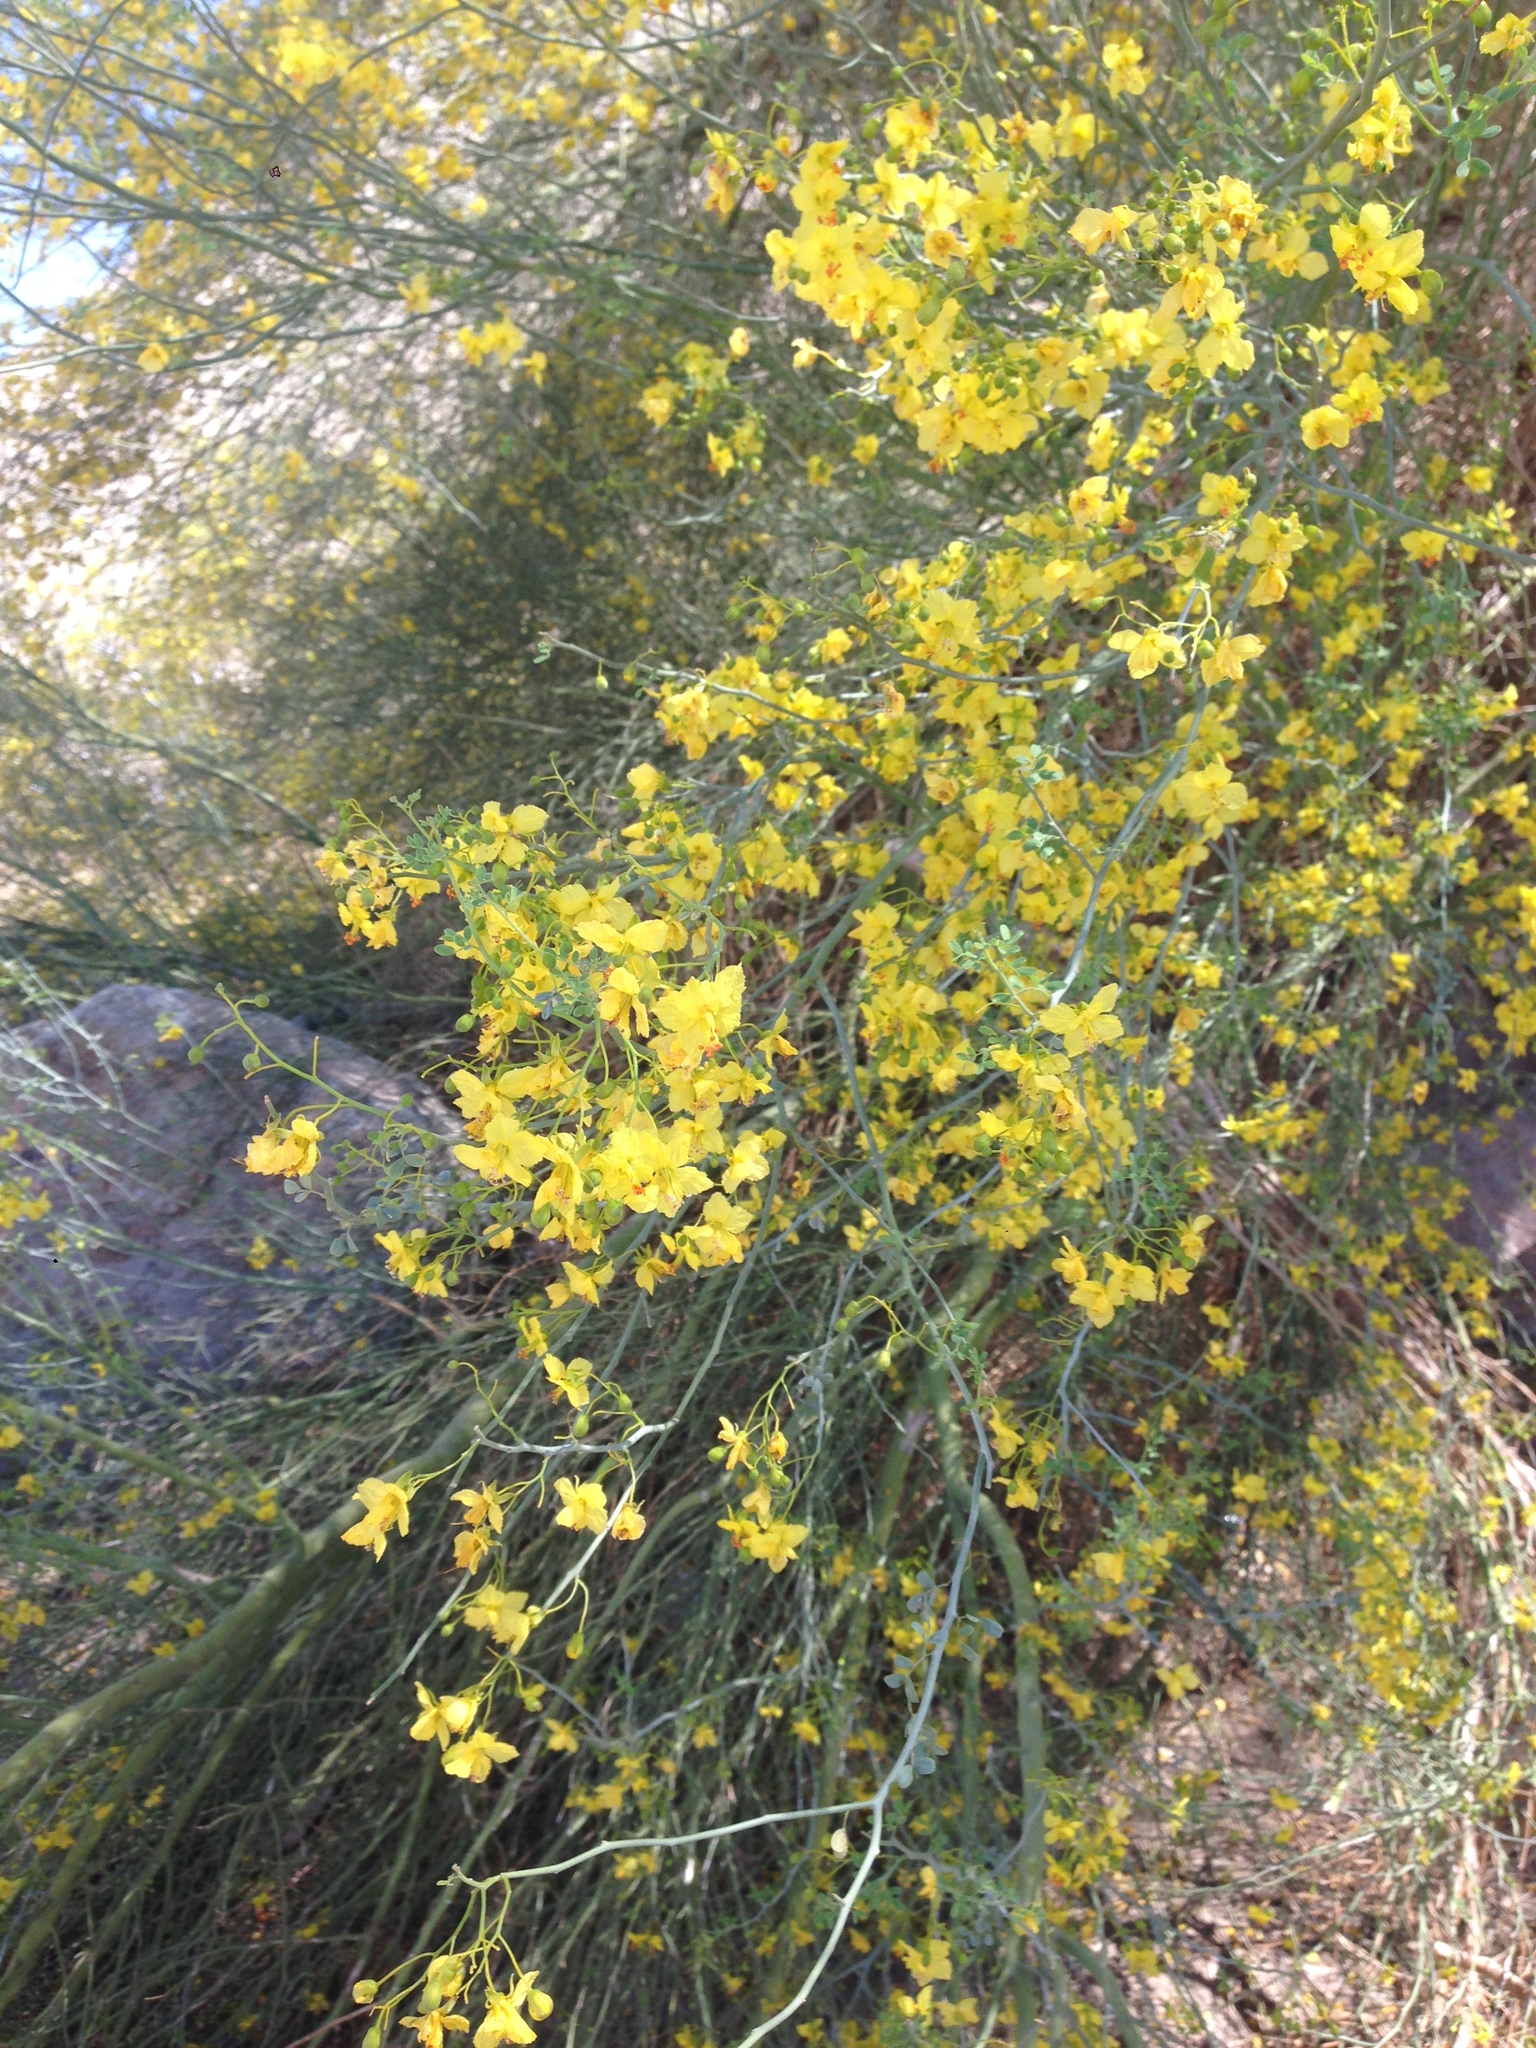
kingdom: Plantae
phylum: Tracheophyta
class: Magnoliopsida
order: Fabales
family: Fabaceae
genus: Parkinsonia
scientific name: Parkinsonia florida
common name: Blue paloverde
